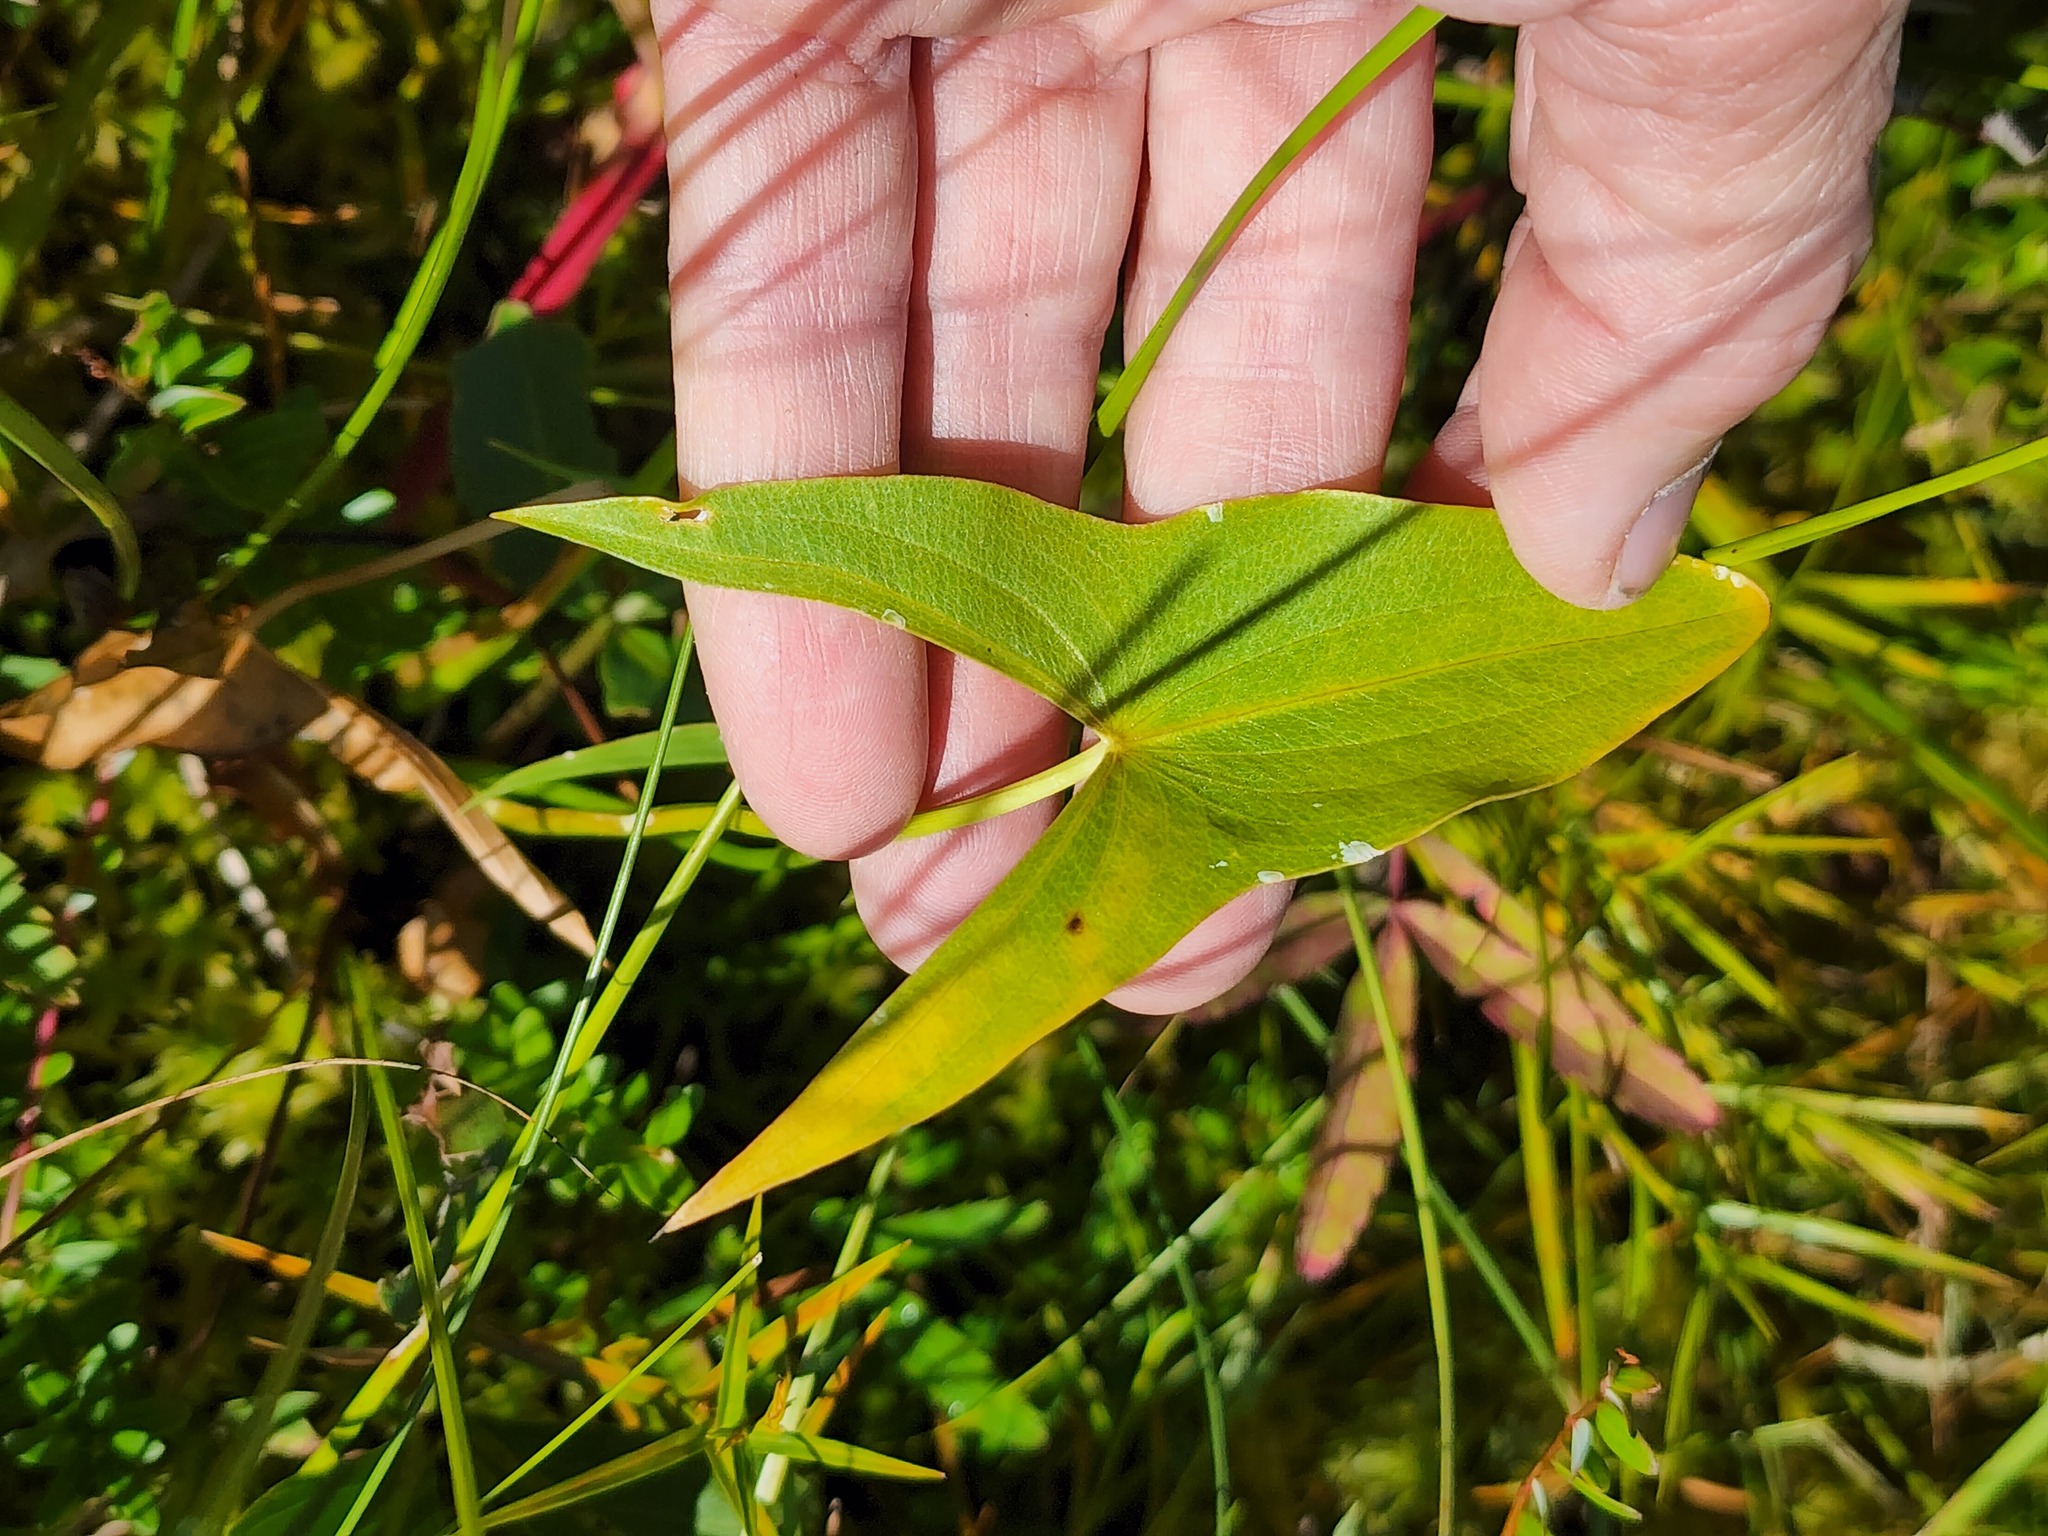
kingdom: Plantae
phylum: Tracheophyta
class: Liliopsida
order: Alismatales
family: Alismataceae
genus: Sagittaria
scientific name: Sagittaria latifolia
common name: Duck-potato
